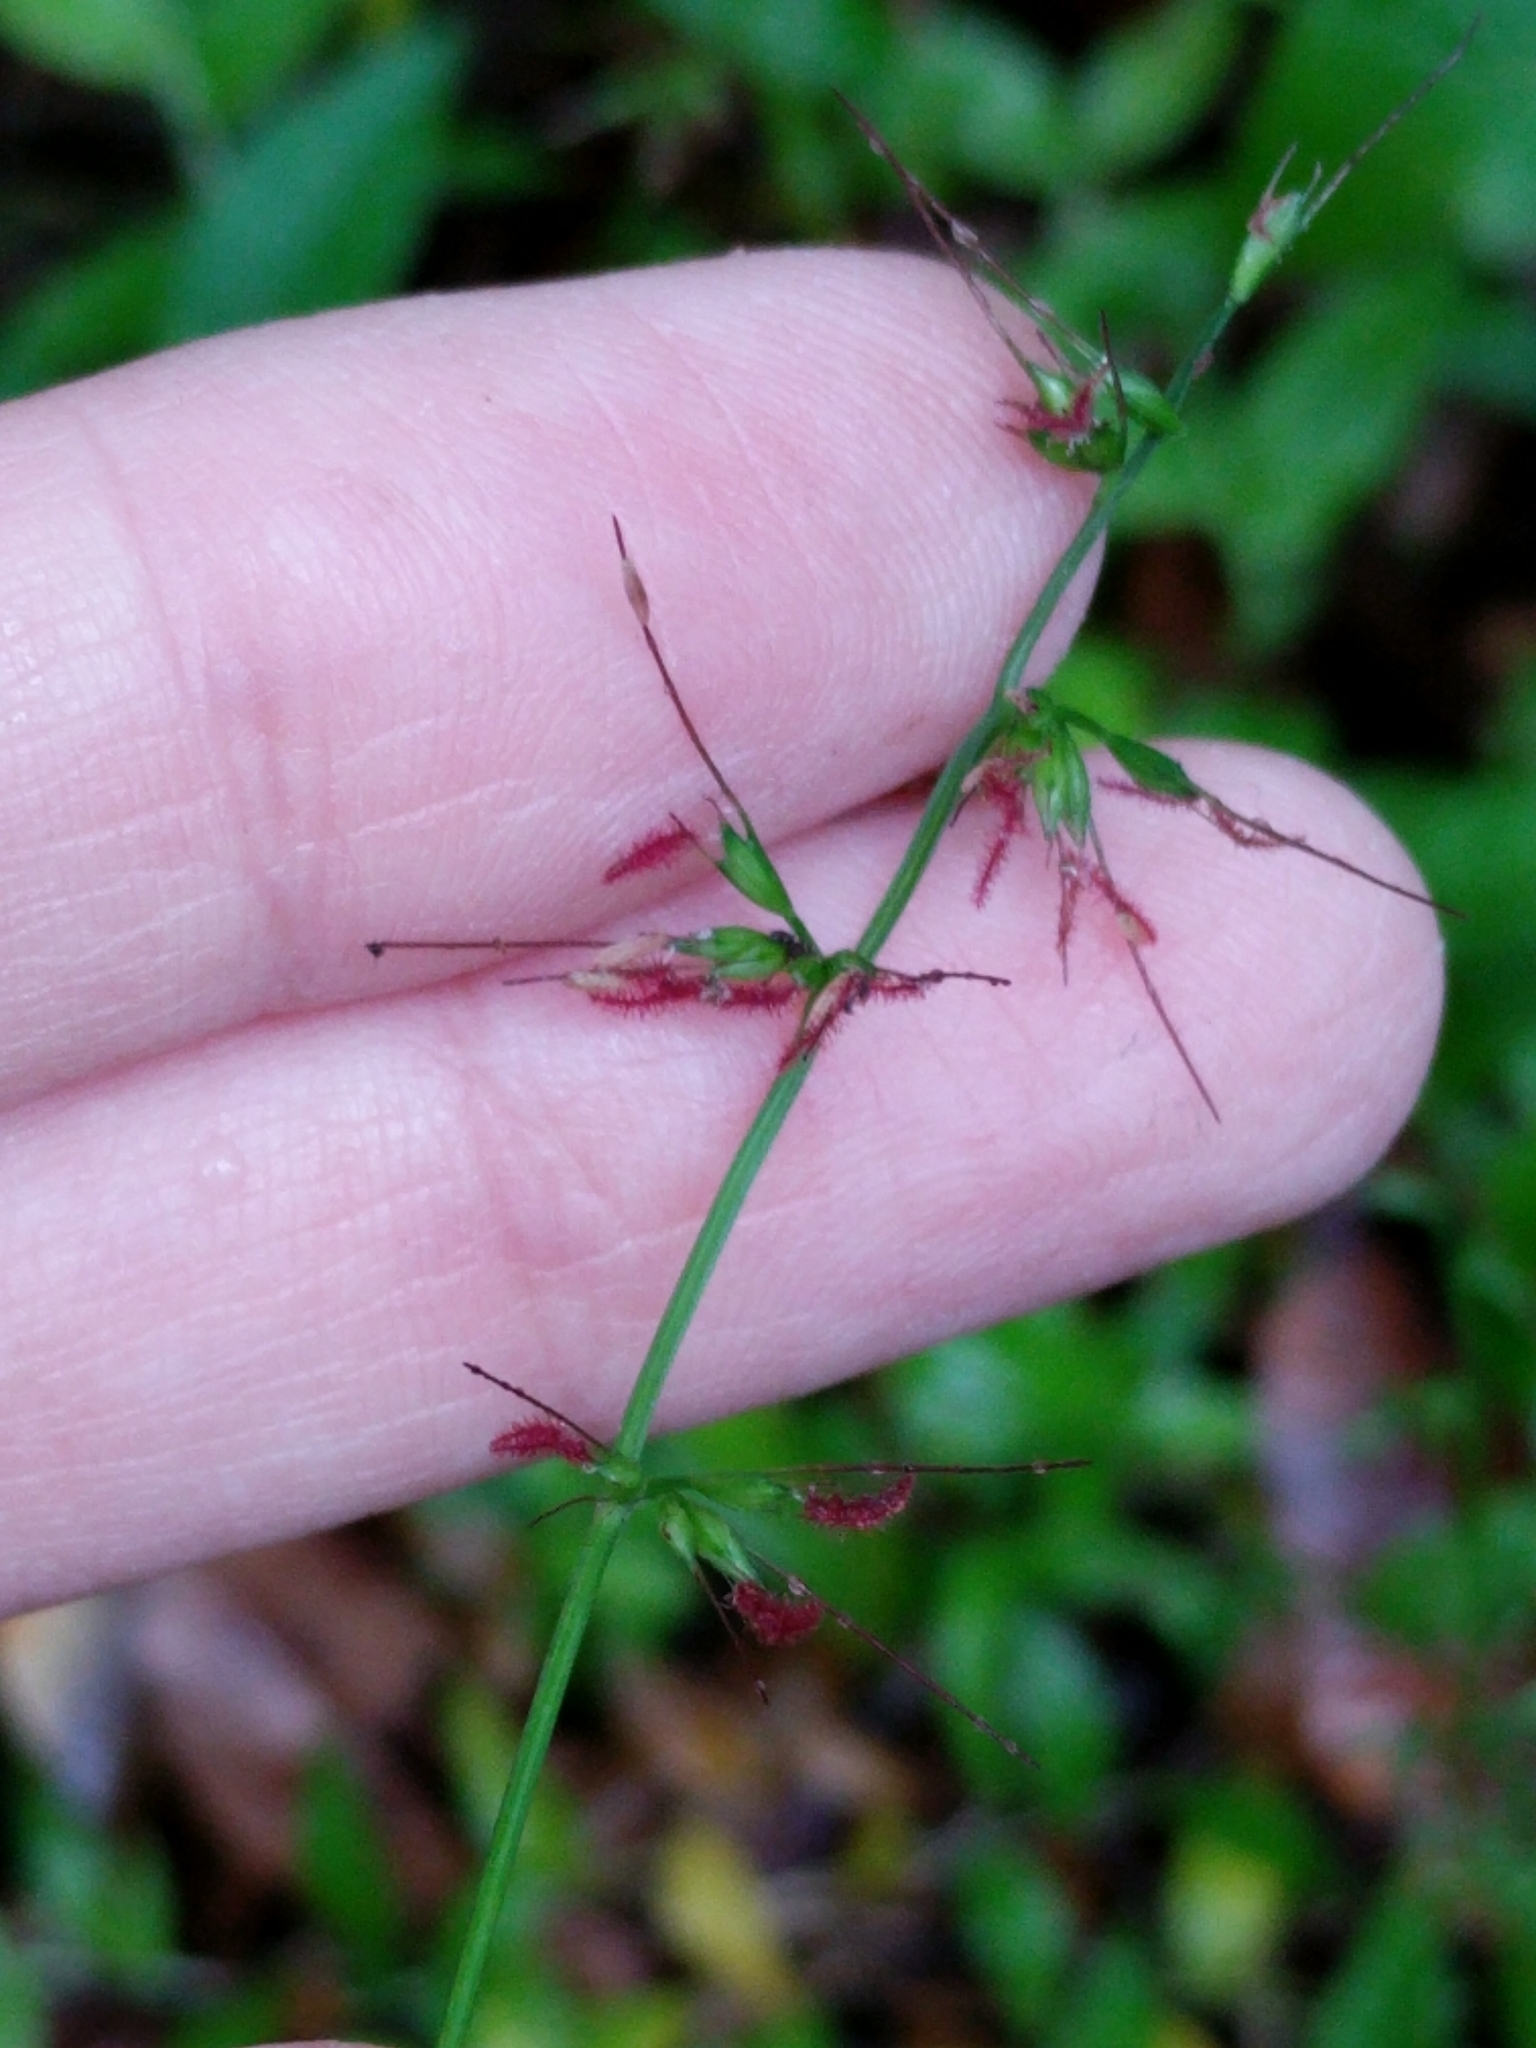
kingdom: Plantae
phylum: Tracheophyta
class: Liliopsida
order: Poales
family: Poaceae
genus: Oplismenus
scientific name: Oplismenus hirtellus
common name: Basketgrass
